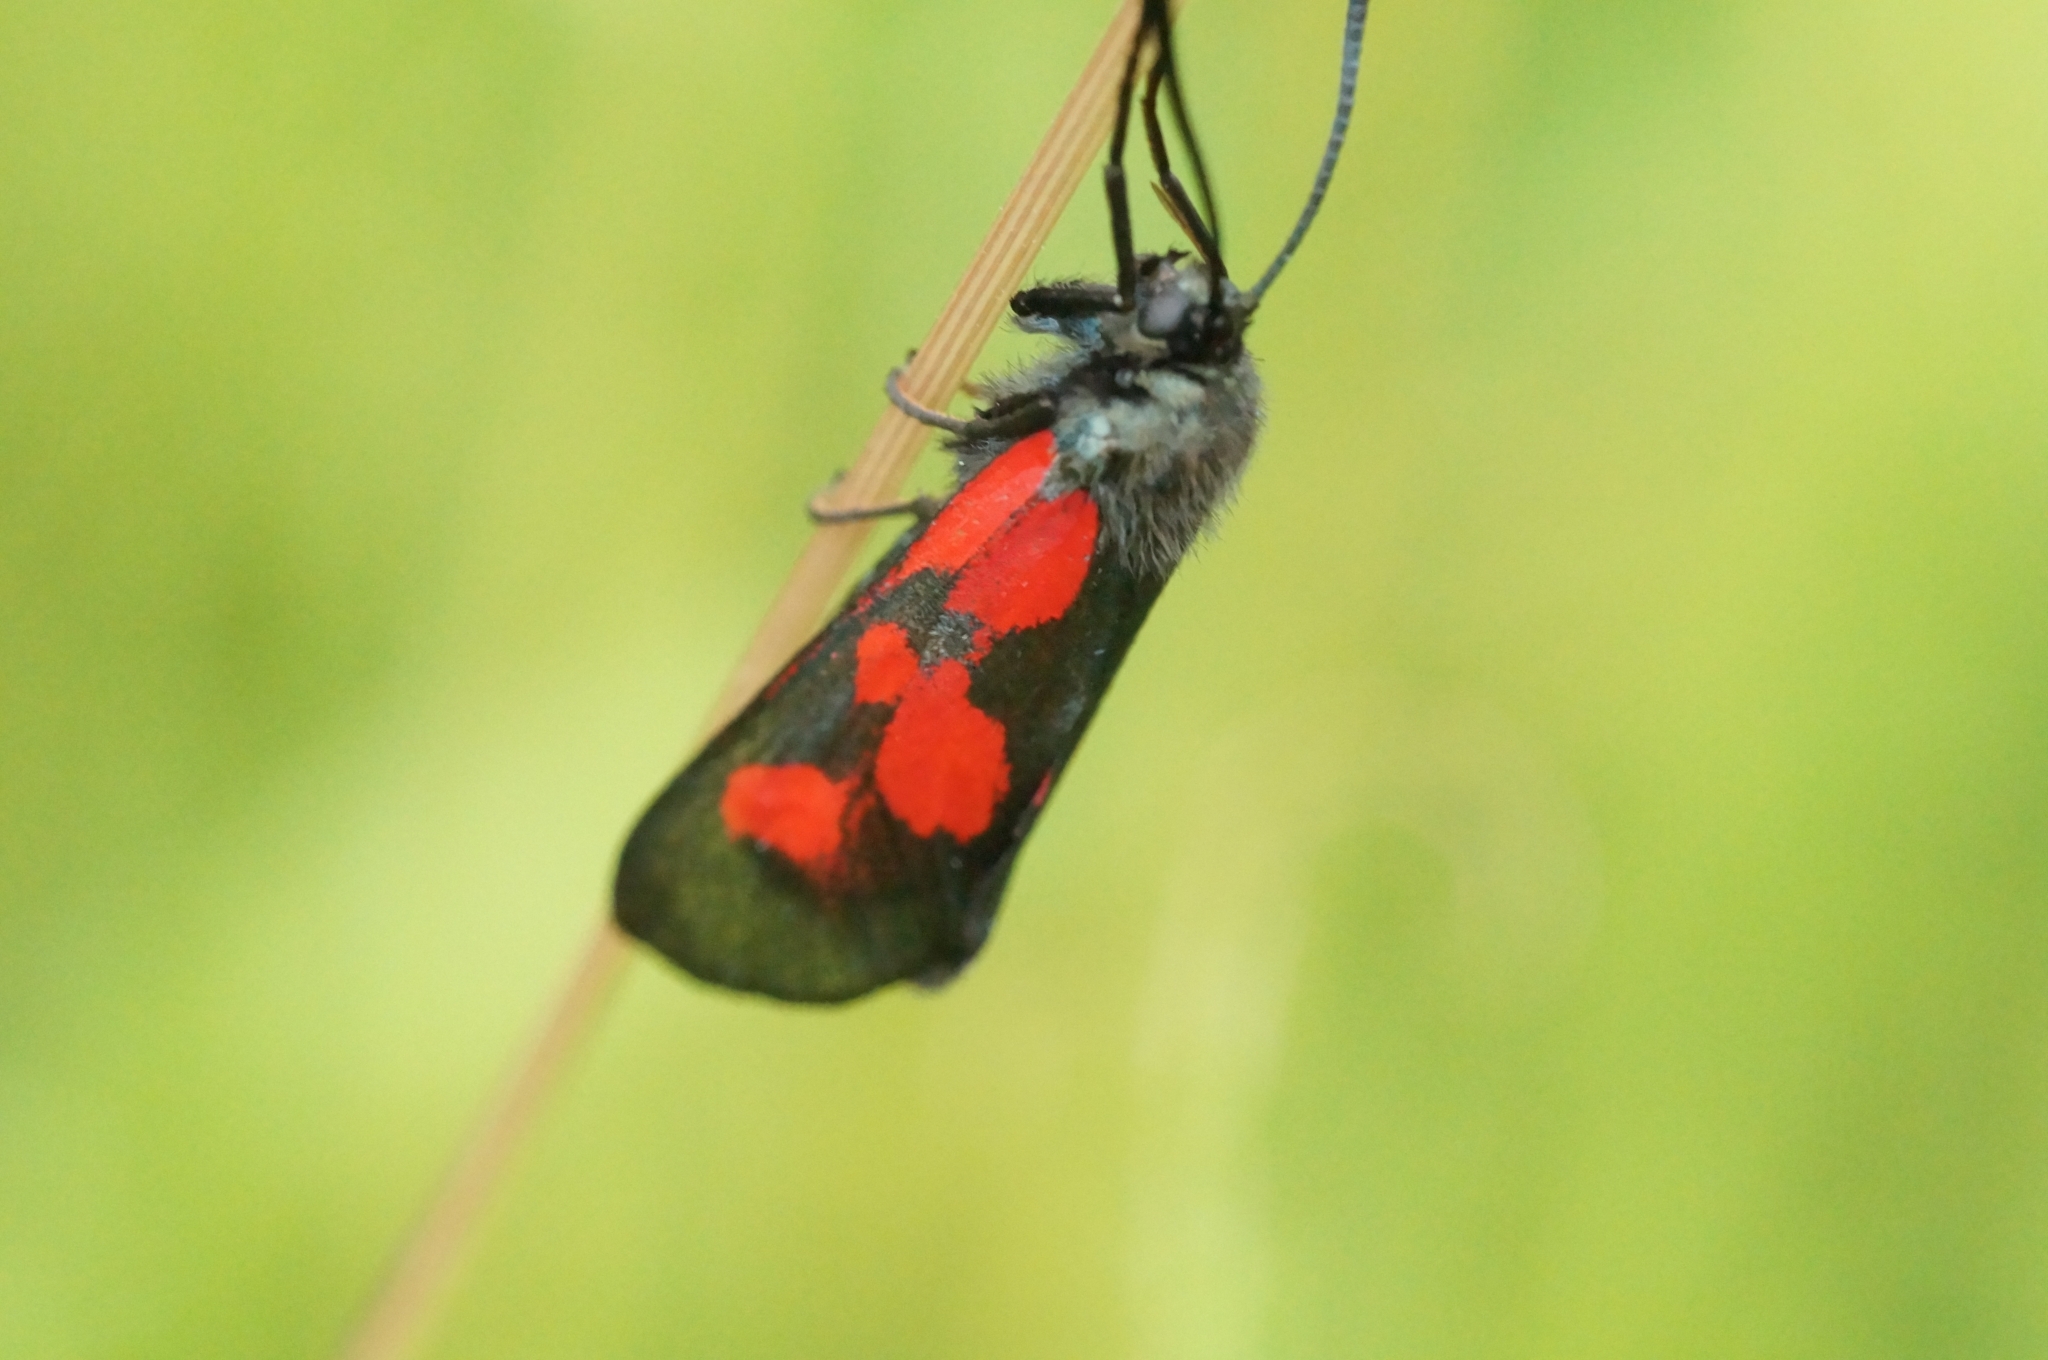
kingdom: Animalia
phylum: Arthropoda
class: Insecta
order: Lepidoptera
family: Zygaenidae
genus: Zygaena
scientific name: Zygaena viciae
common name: New forest burnet
